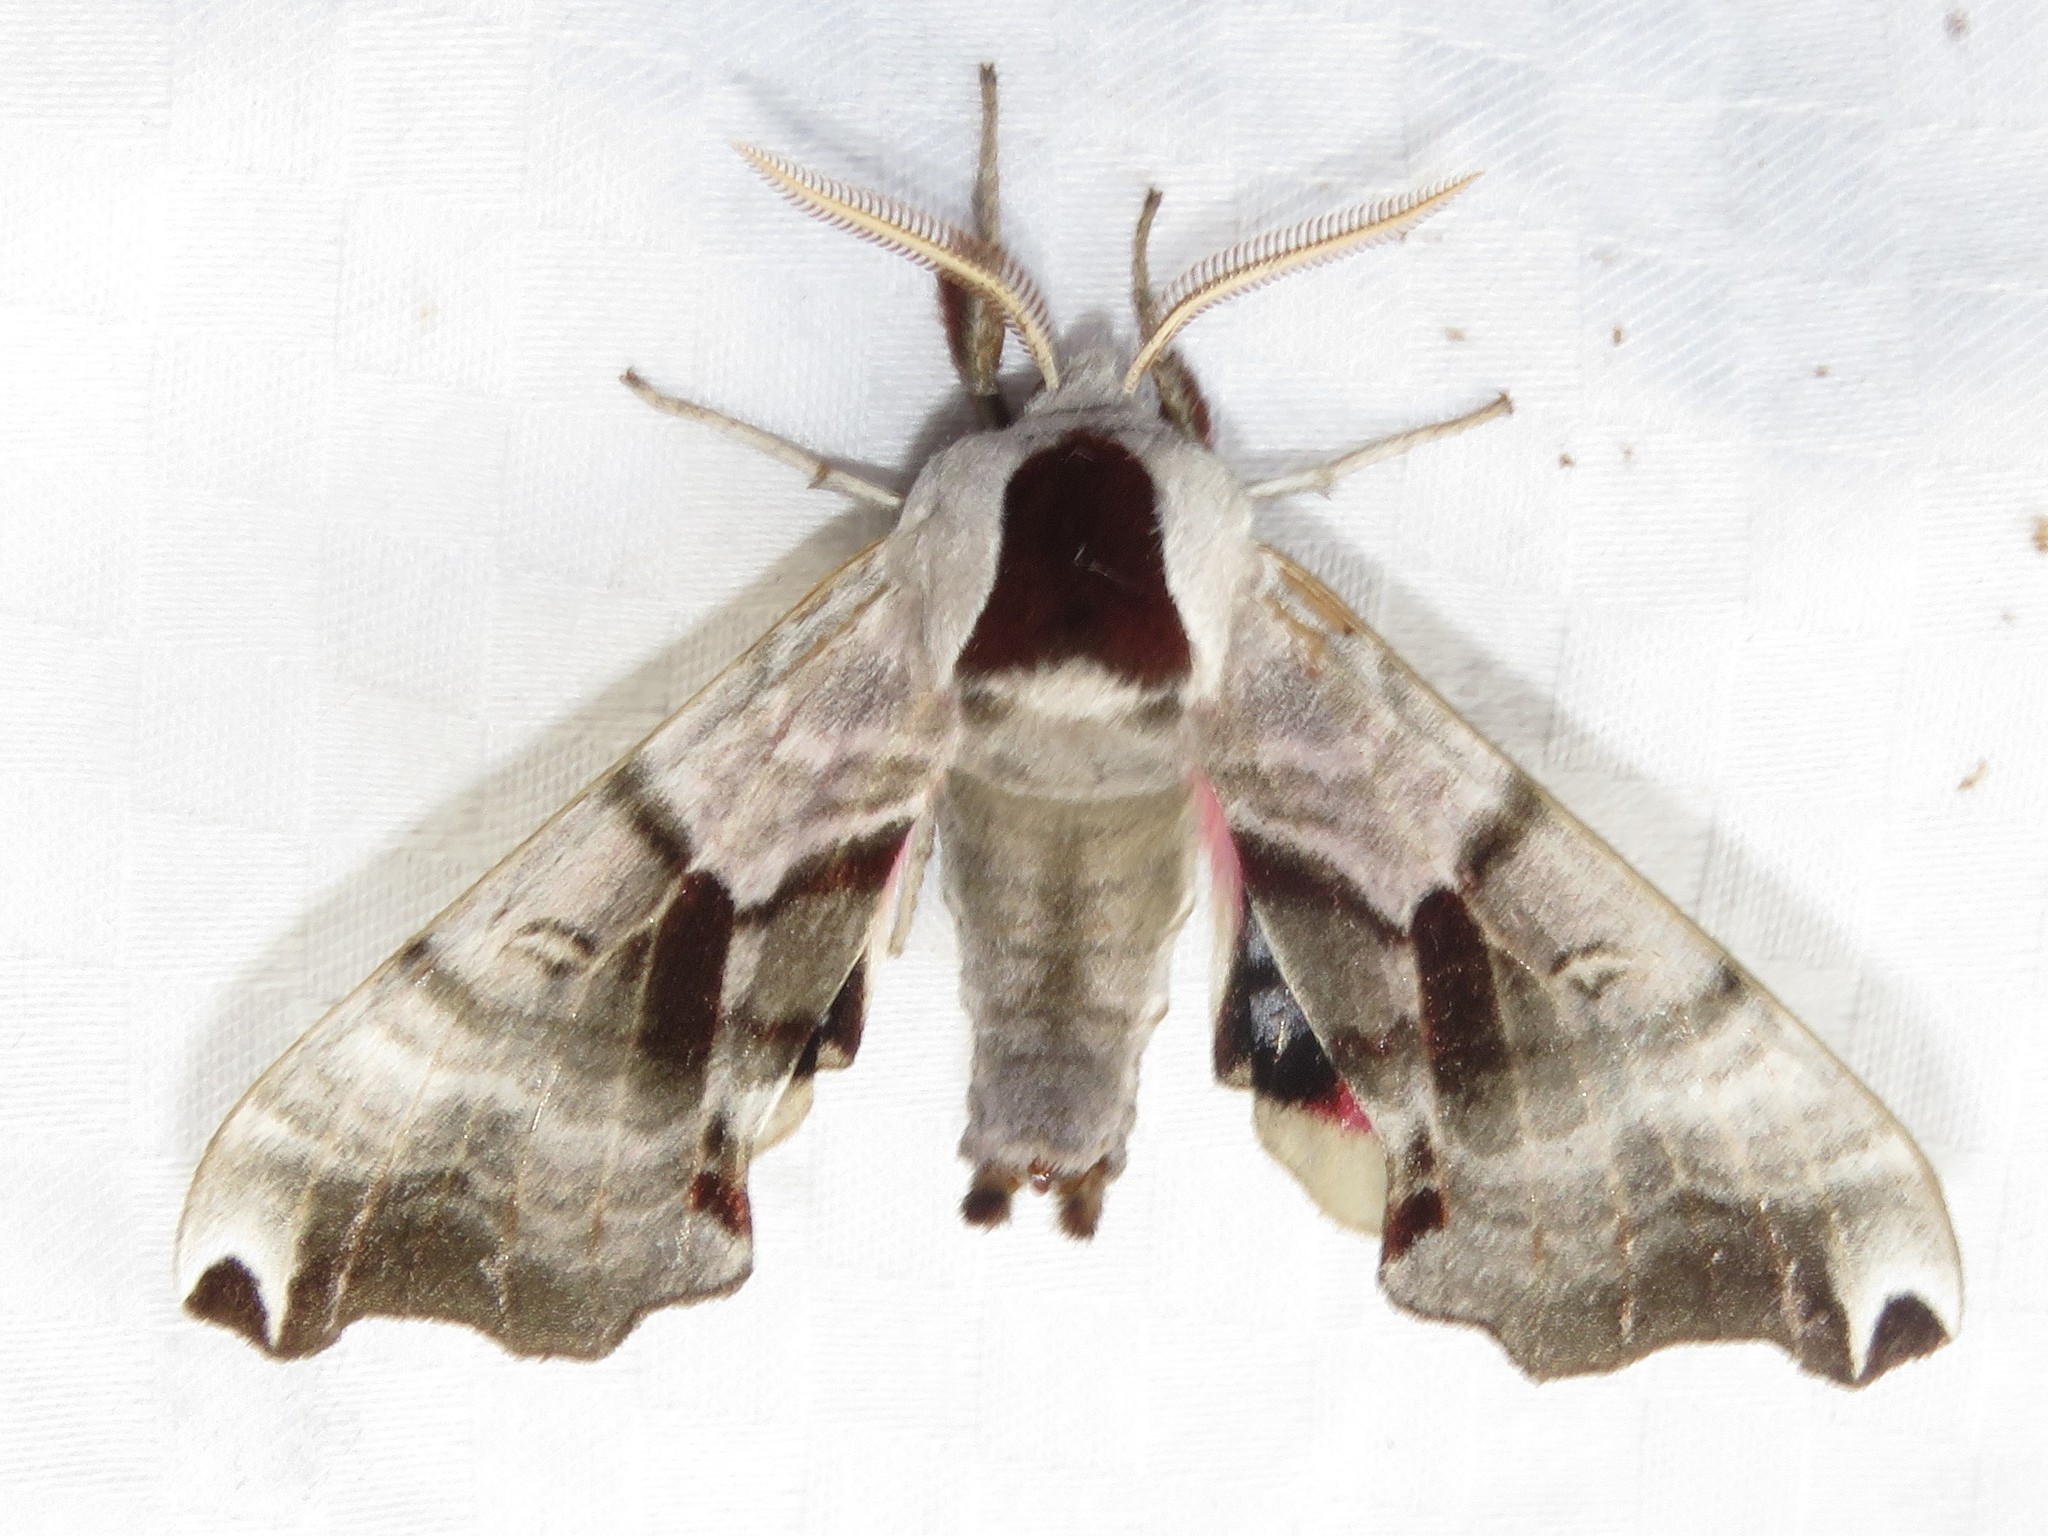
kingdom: Animalia
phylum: Arthropoda
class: Insecta
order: Lepidoptera
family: Sphingidae
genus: Smerinthus
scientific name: Smerinthus jamaicensis
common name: Twin spotted sphinx
